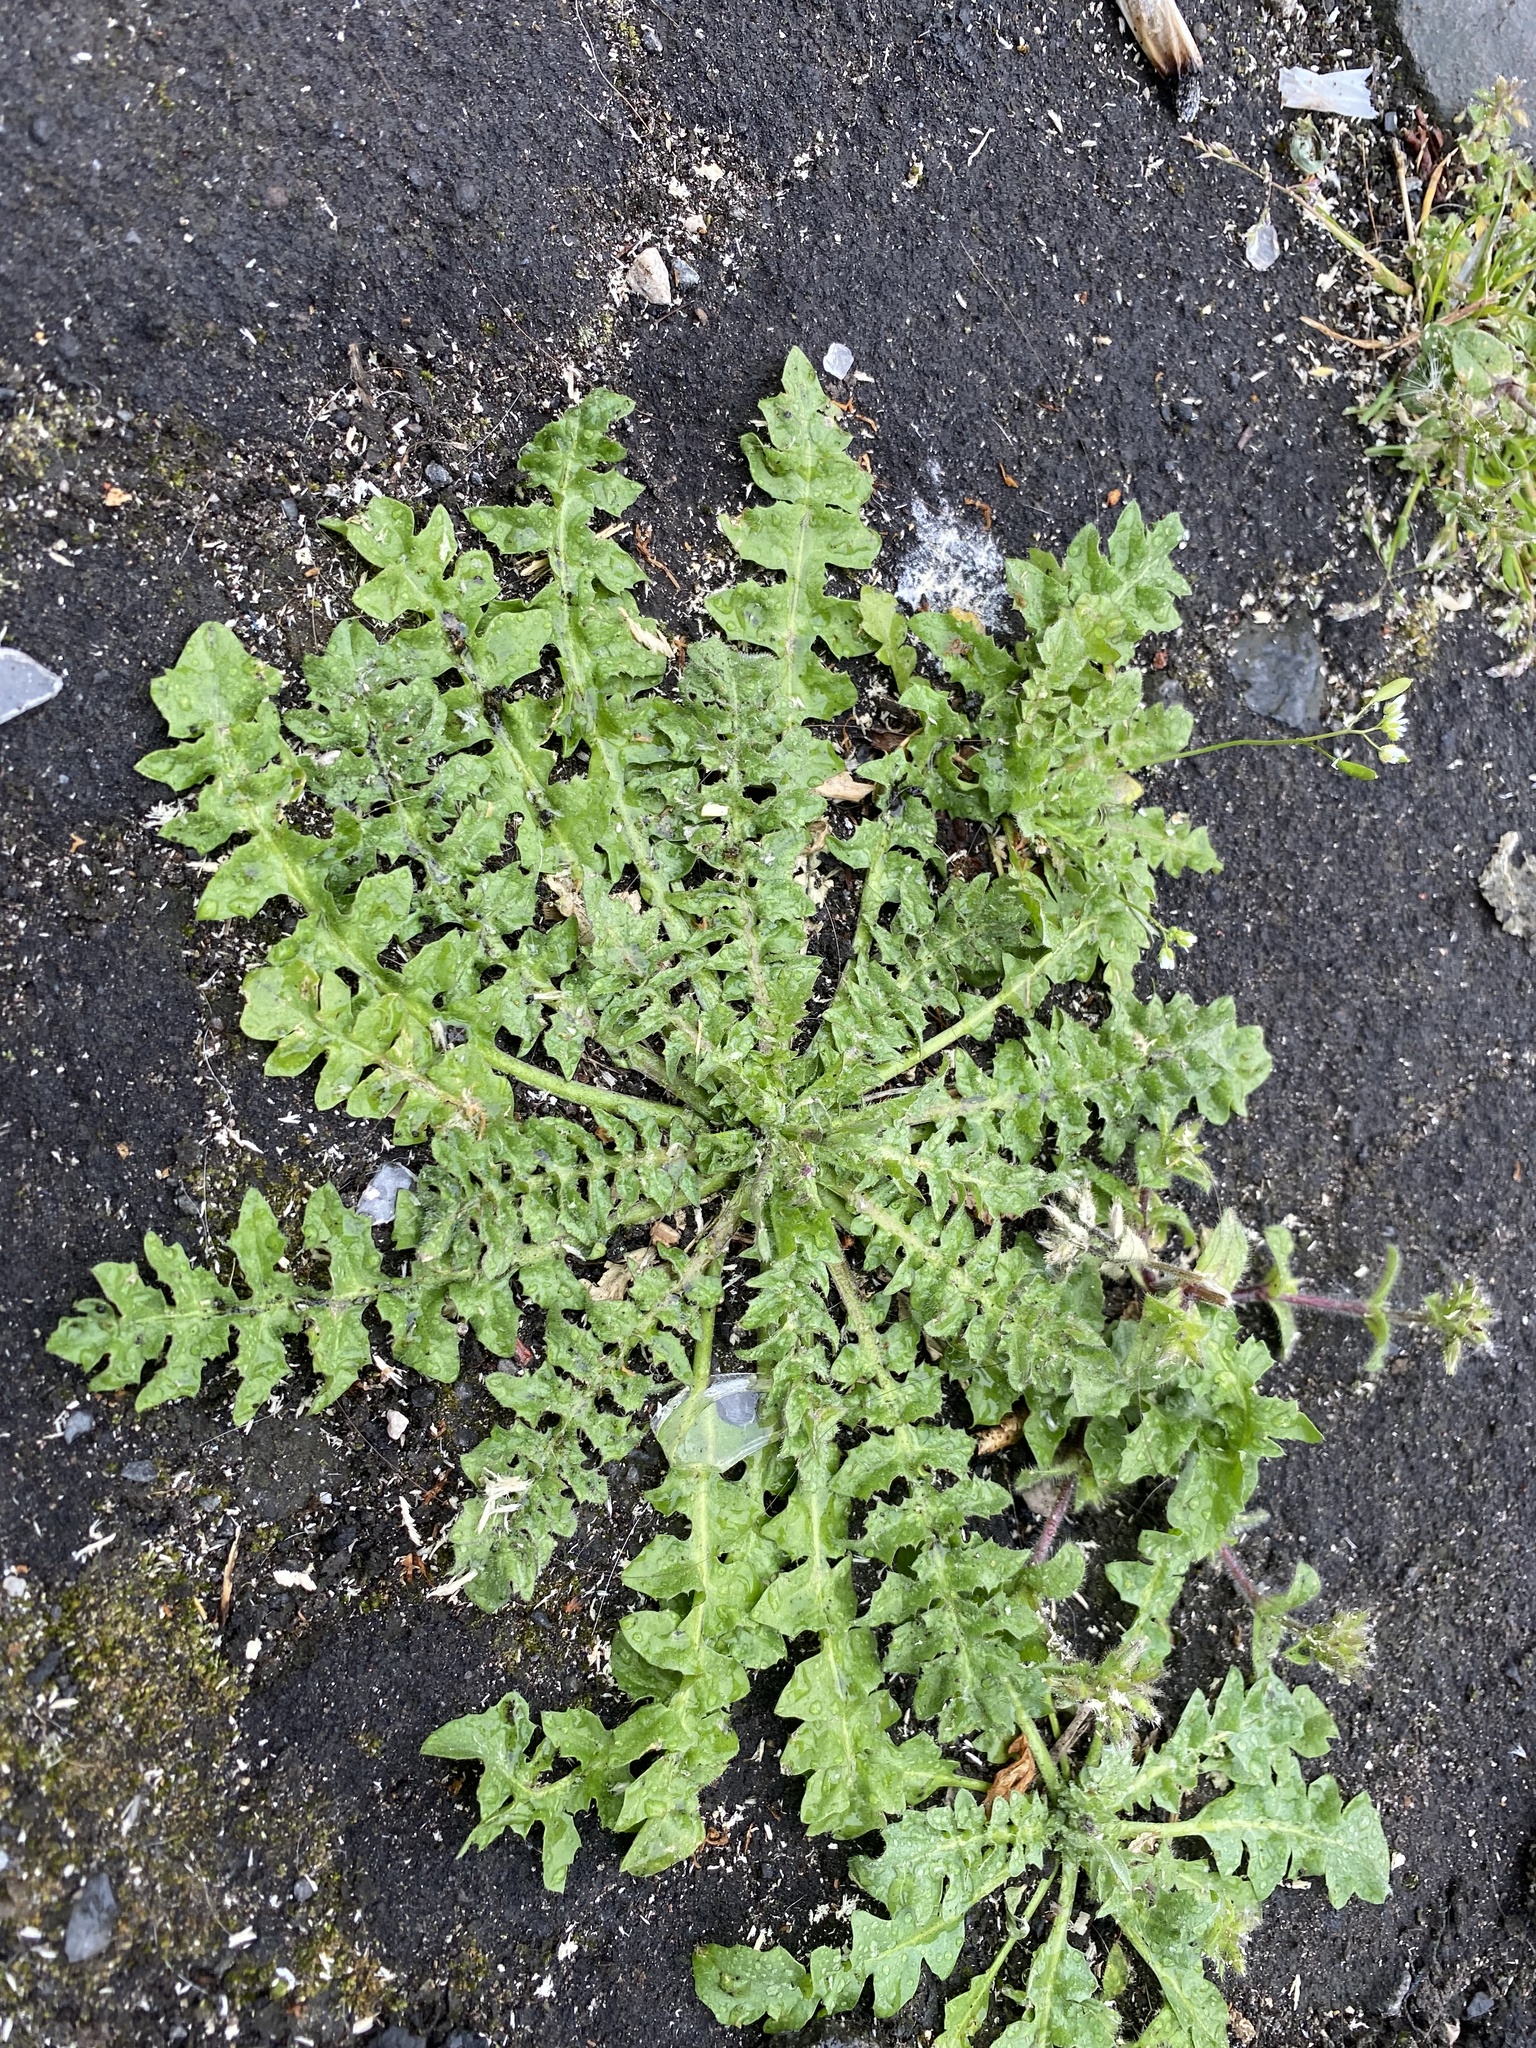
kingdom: Plantae
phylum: Tracheophyta
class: Magnoliopsida
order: Brassicales
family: Brassicaceae
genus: Capsella
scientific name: Capsella bursa-pastoris
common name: Shepherd's purse
